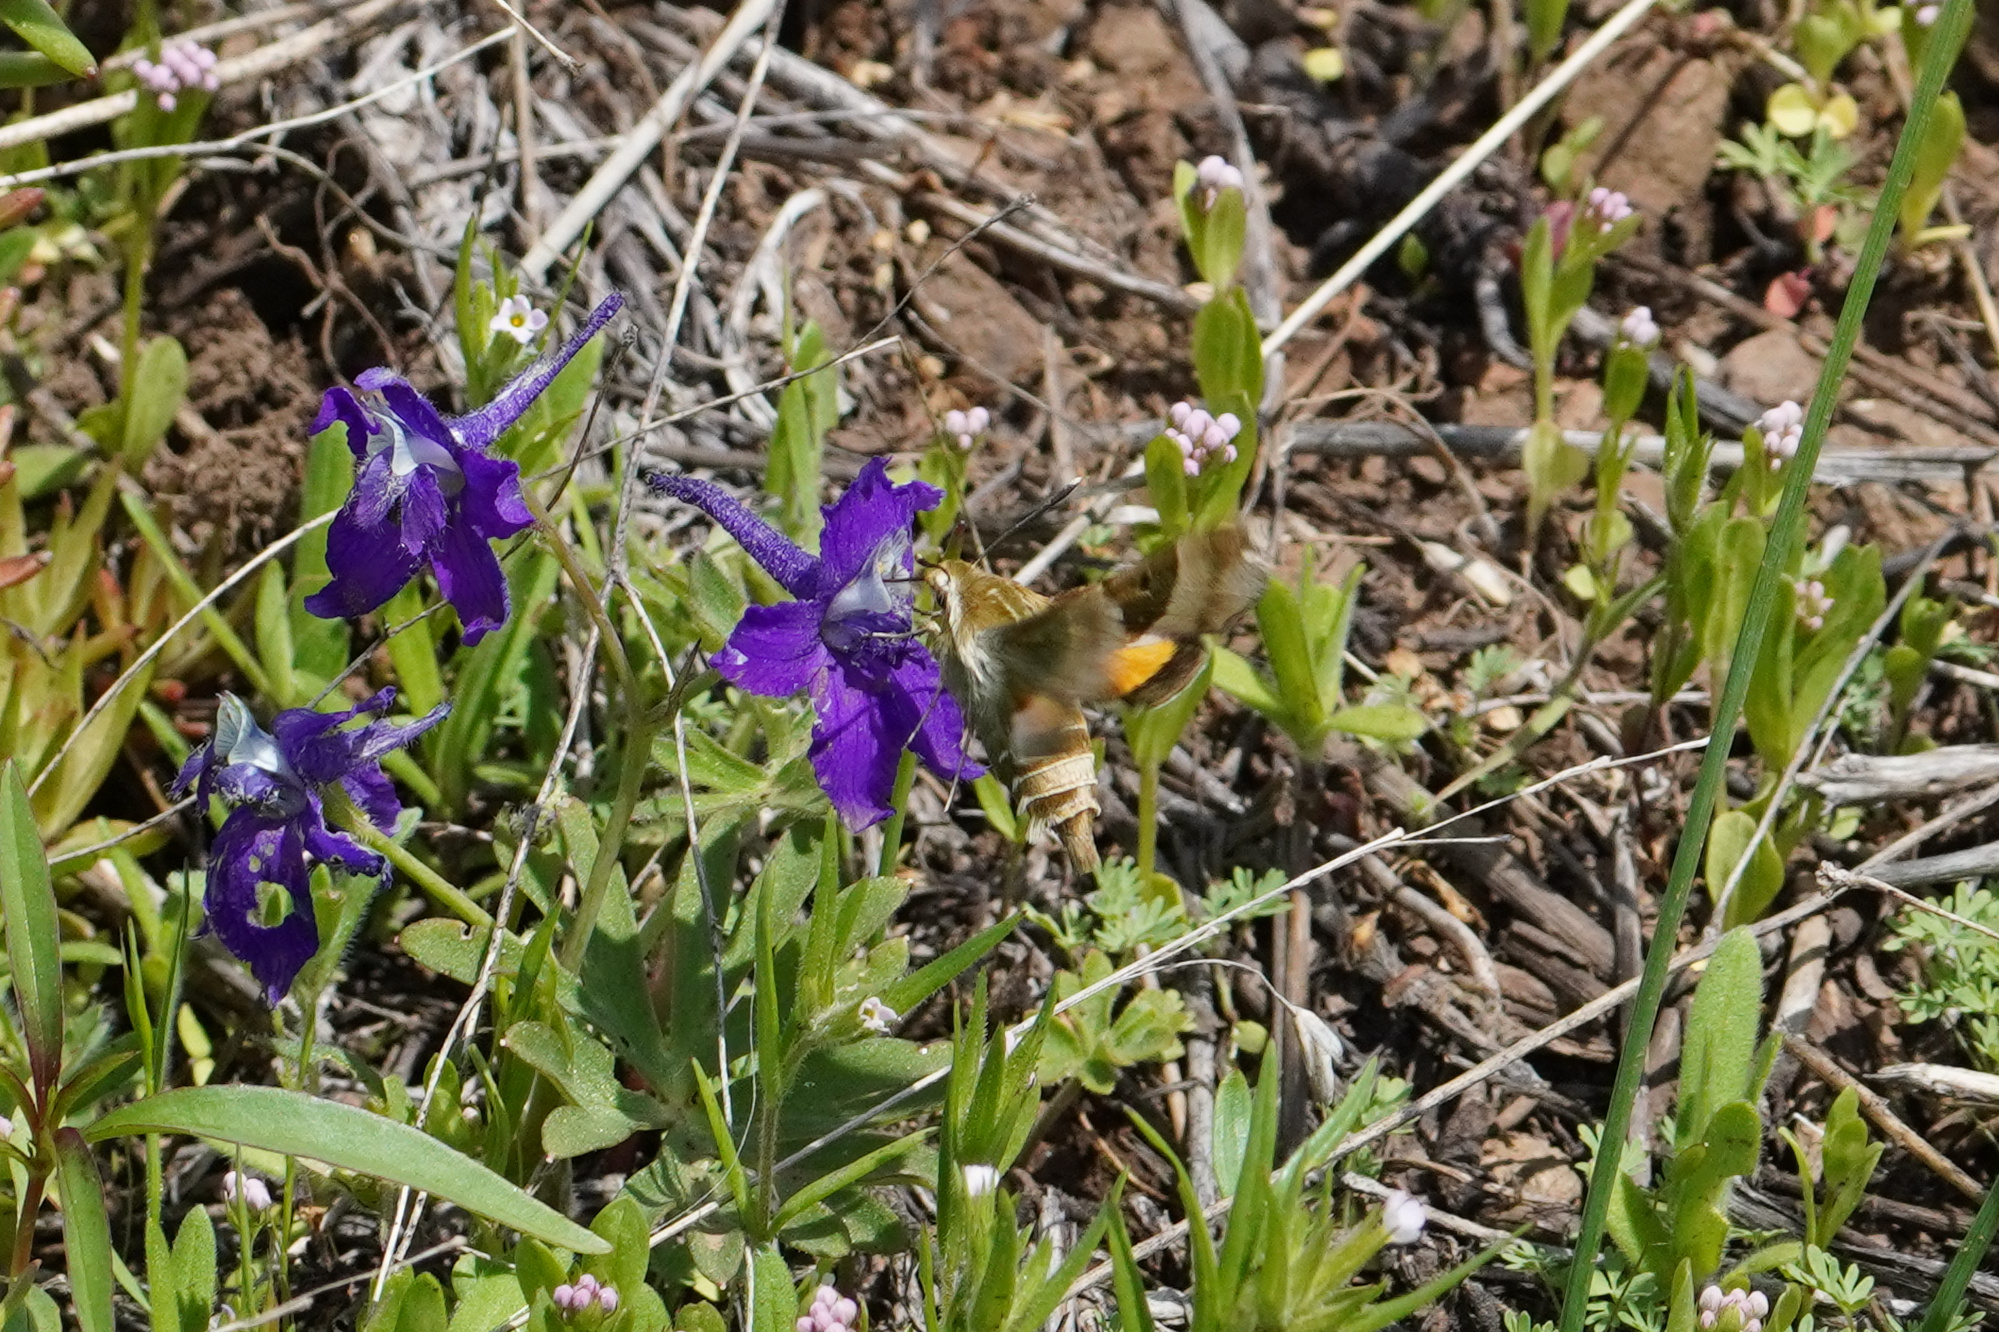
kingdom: Animalia
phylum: Arthropoda
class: Insecta
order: Lepidoptera
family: Sphingidae
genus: Proserpinus
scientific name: Proserpinus clarkiae
